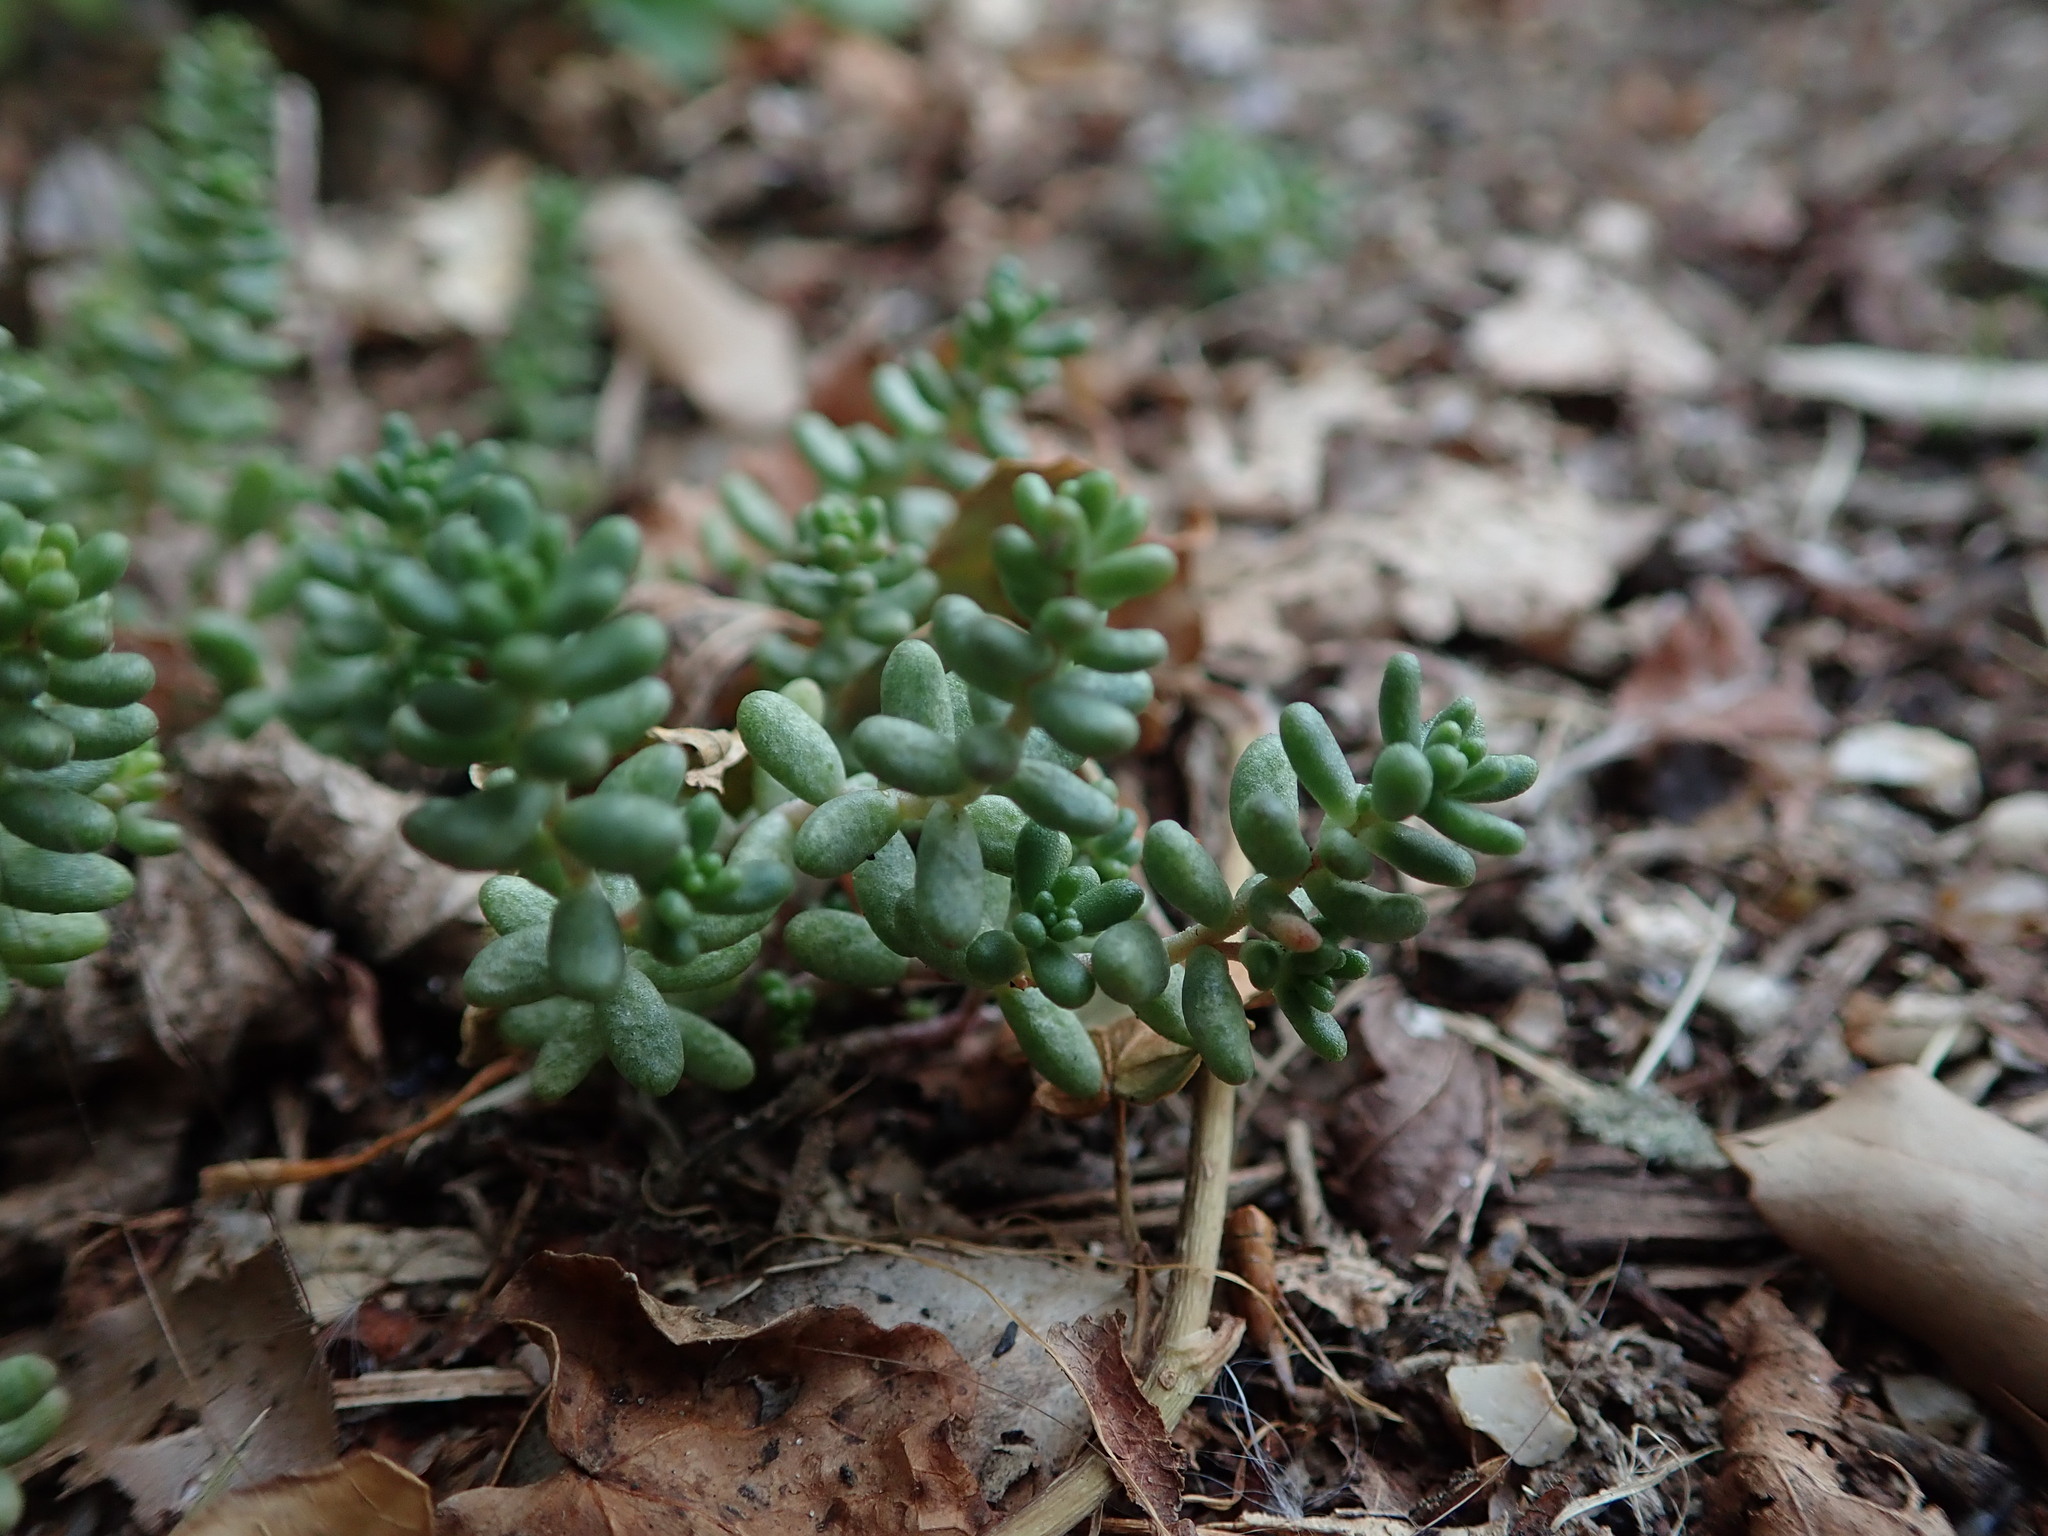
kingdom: Plantae
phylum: Tracheophyta
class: Magnoliopsida
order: Saxifragales
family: Crassulaceae
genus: Sedum
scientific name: Sedum album
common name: White stonecrop
